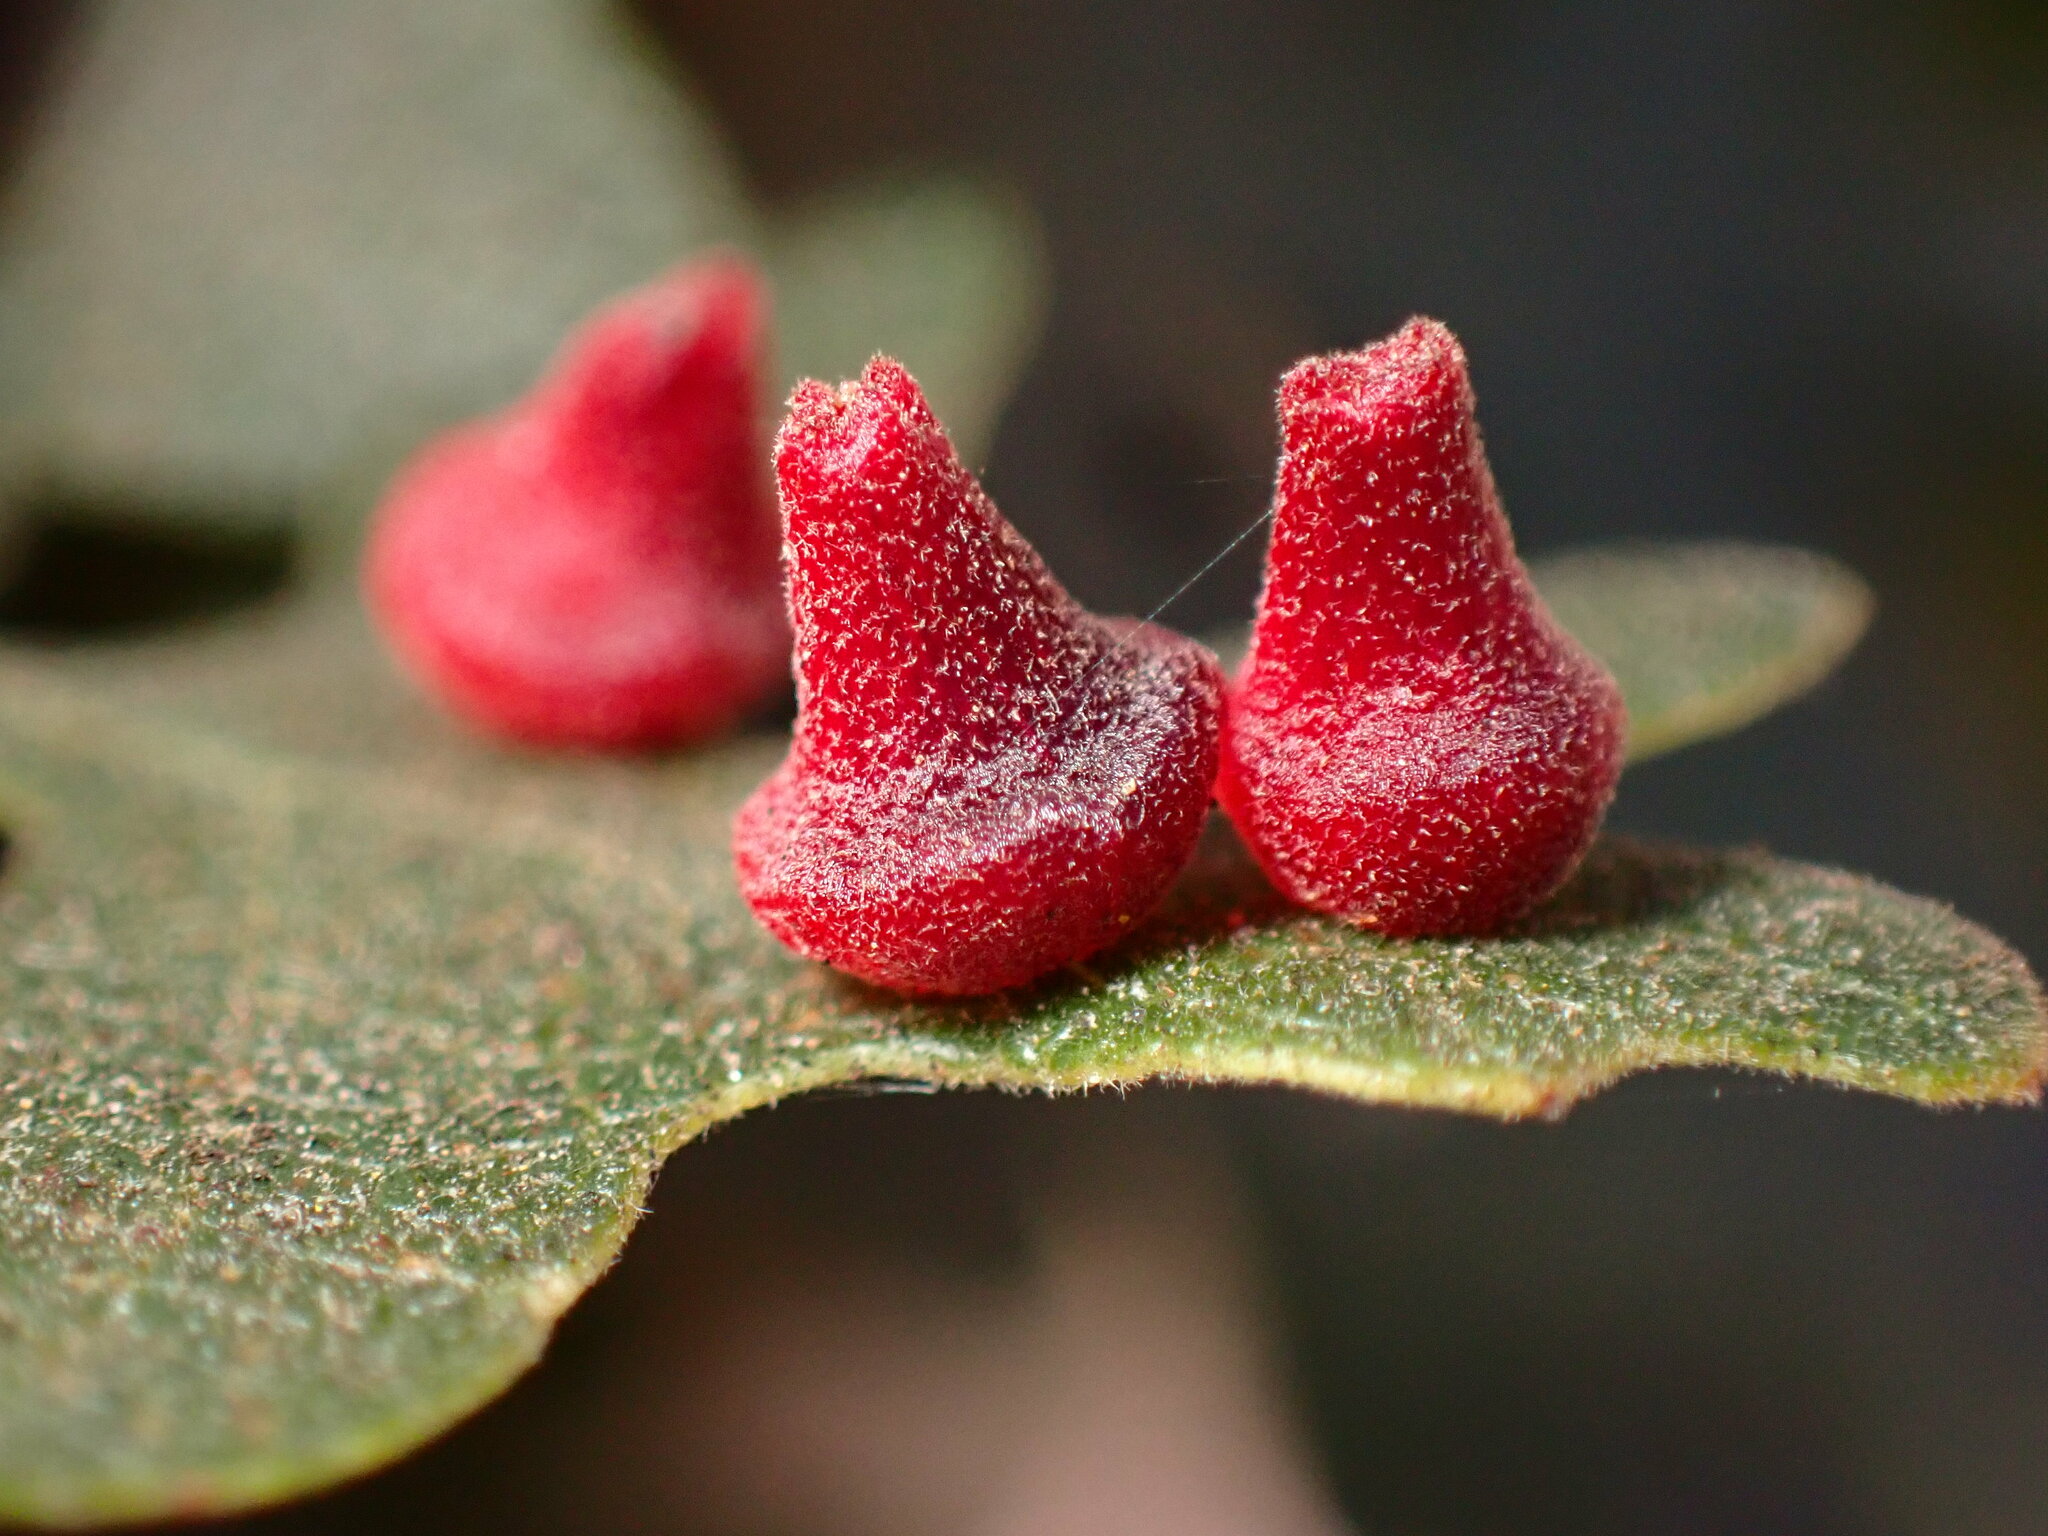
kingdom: Animalia
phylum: Arthropoda
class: Insecta
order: Hymenoptera
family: Cynipidae
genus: Andricus
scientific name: Andricus
